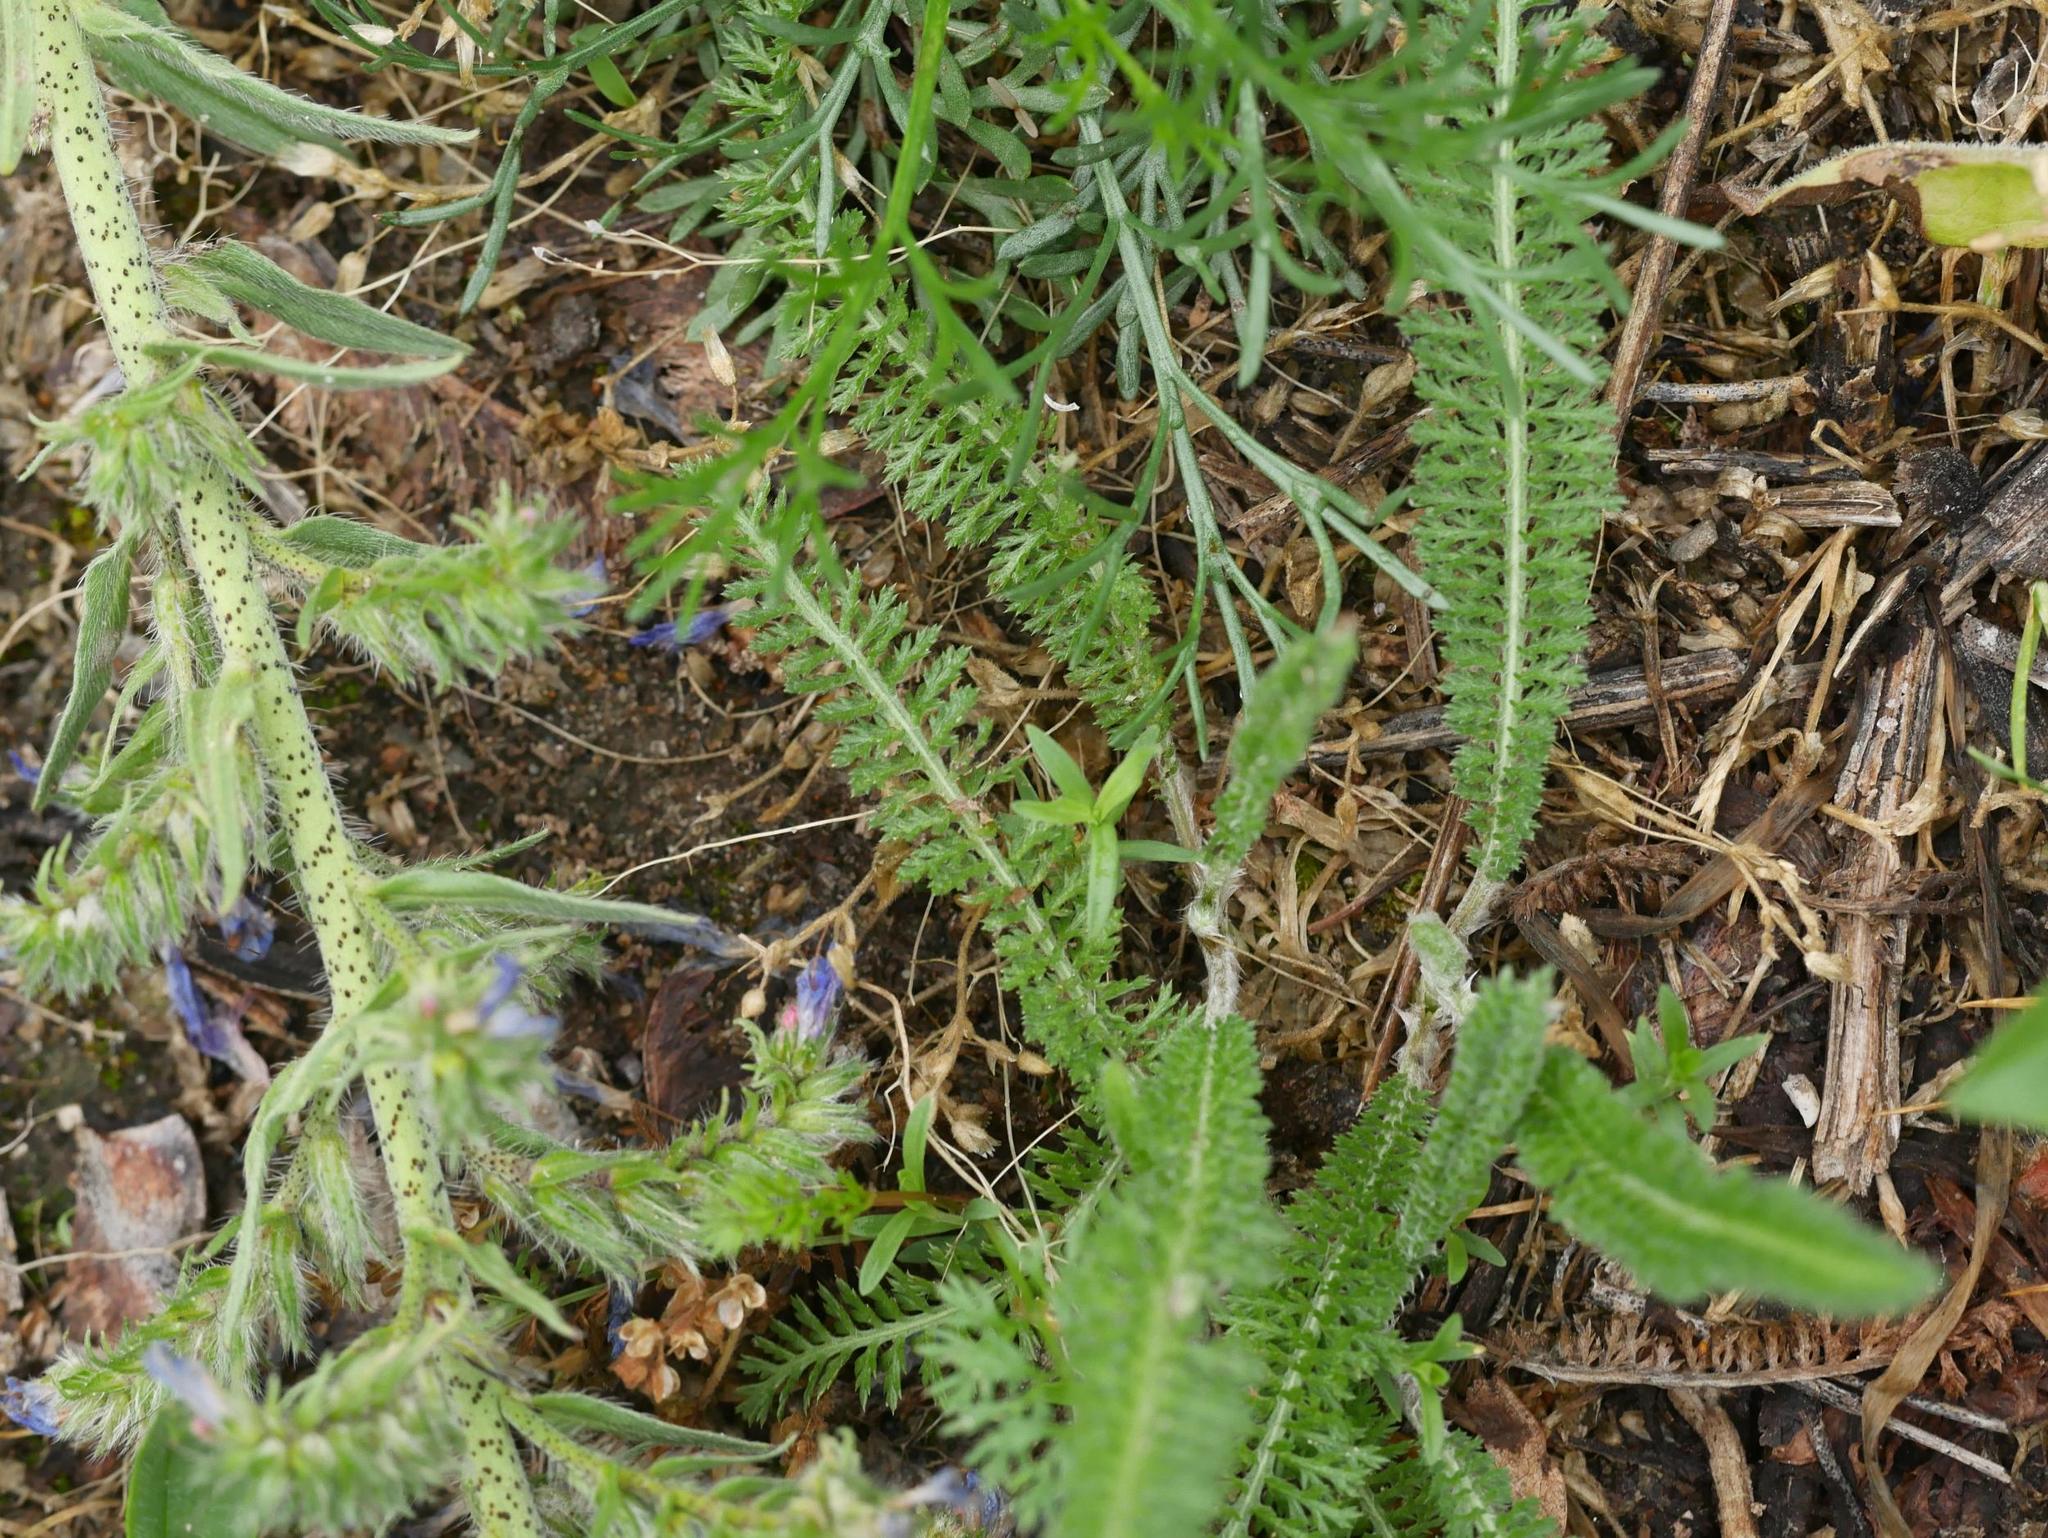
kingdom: Plantae
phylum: Tracheophyta
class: Magnoliopsida
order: Asterales
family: Asteraceae
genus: Achillea
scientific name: Achillea millefolium
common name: Yarrow
